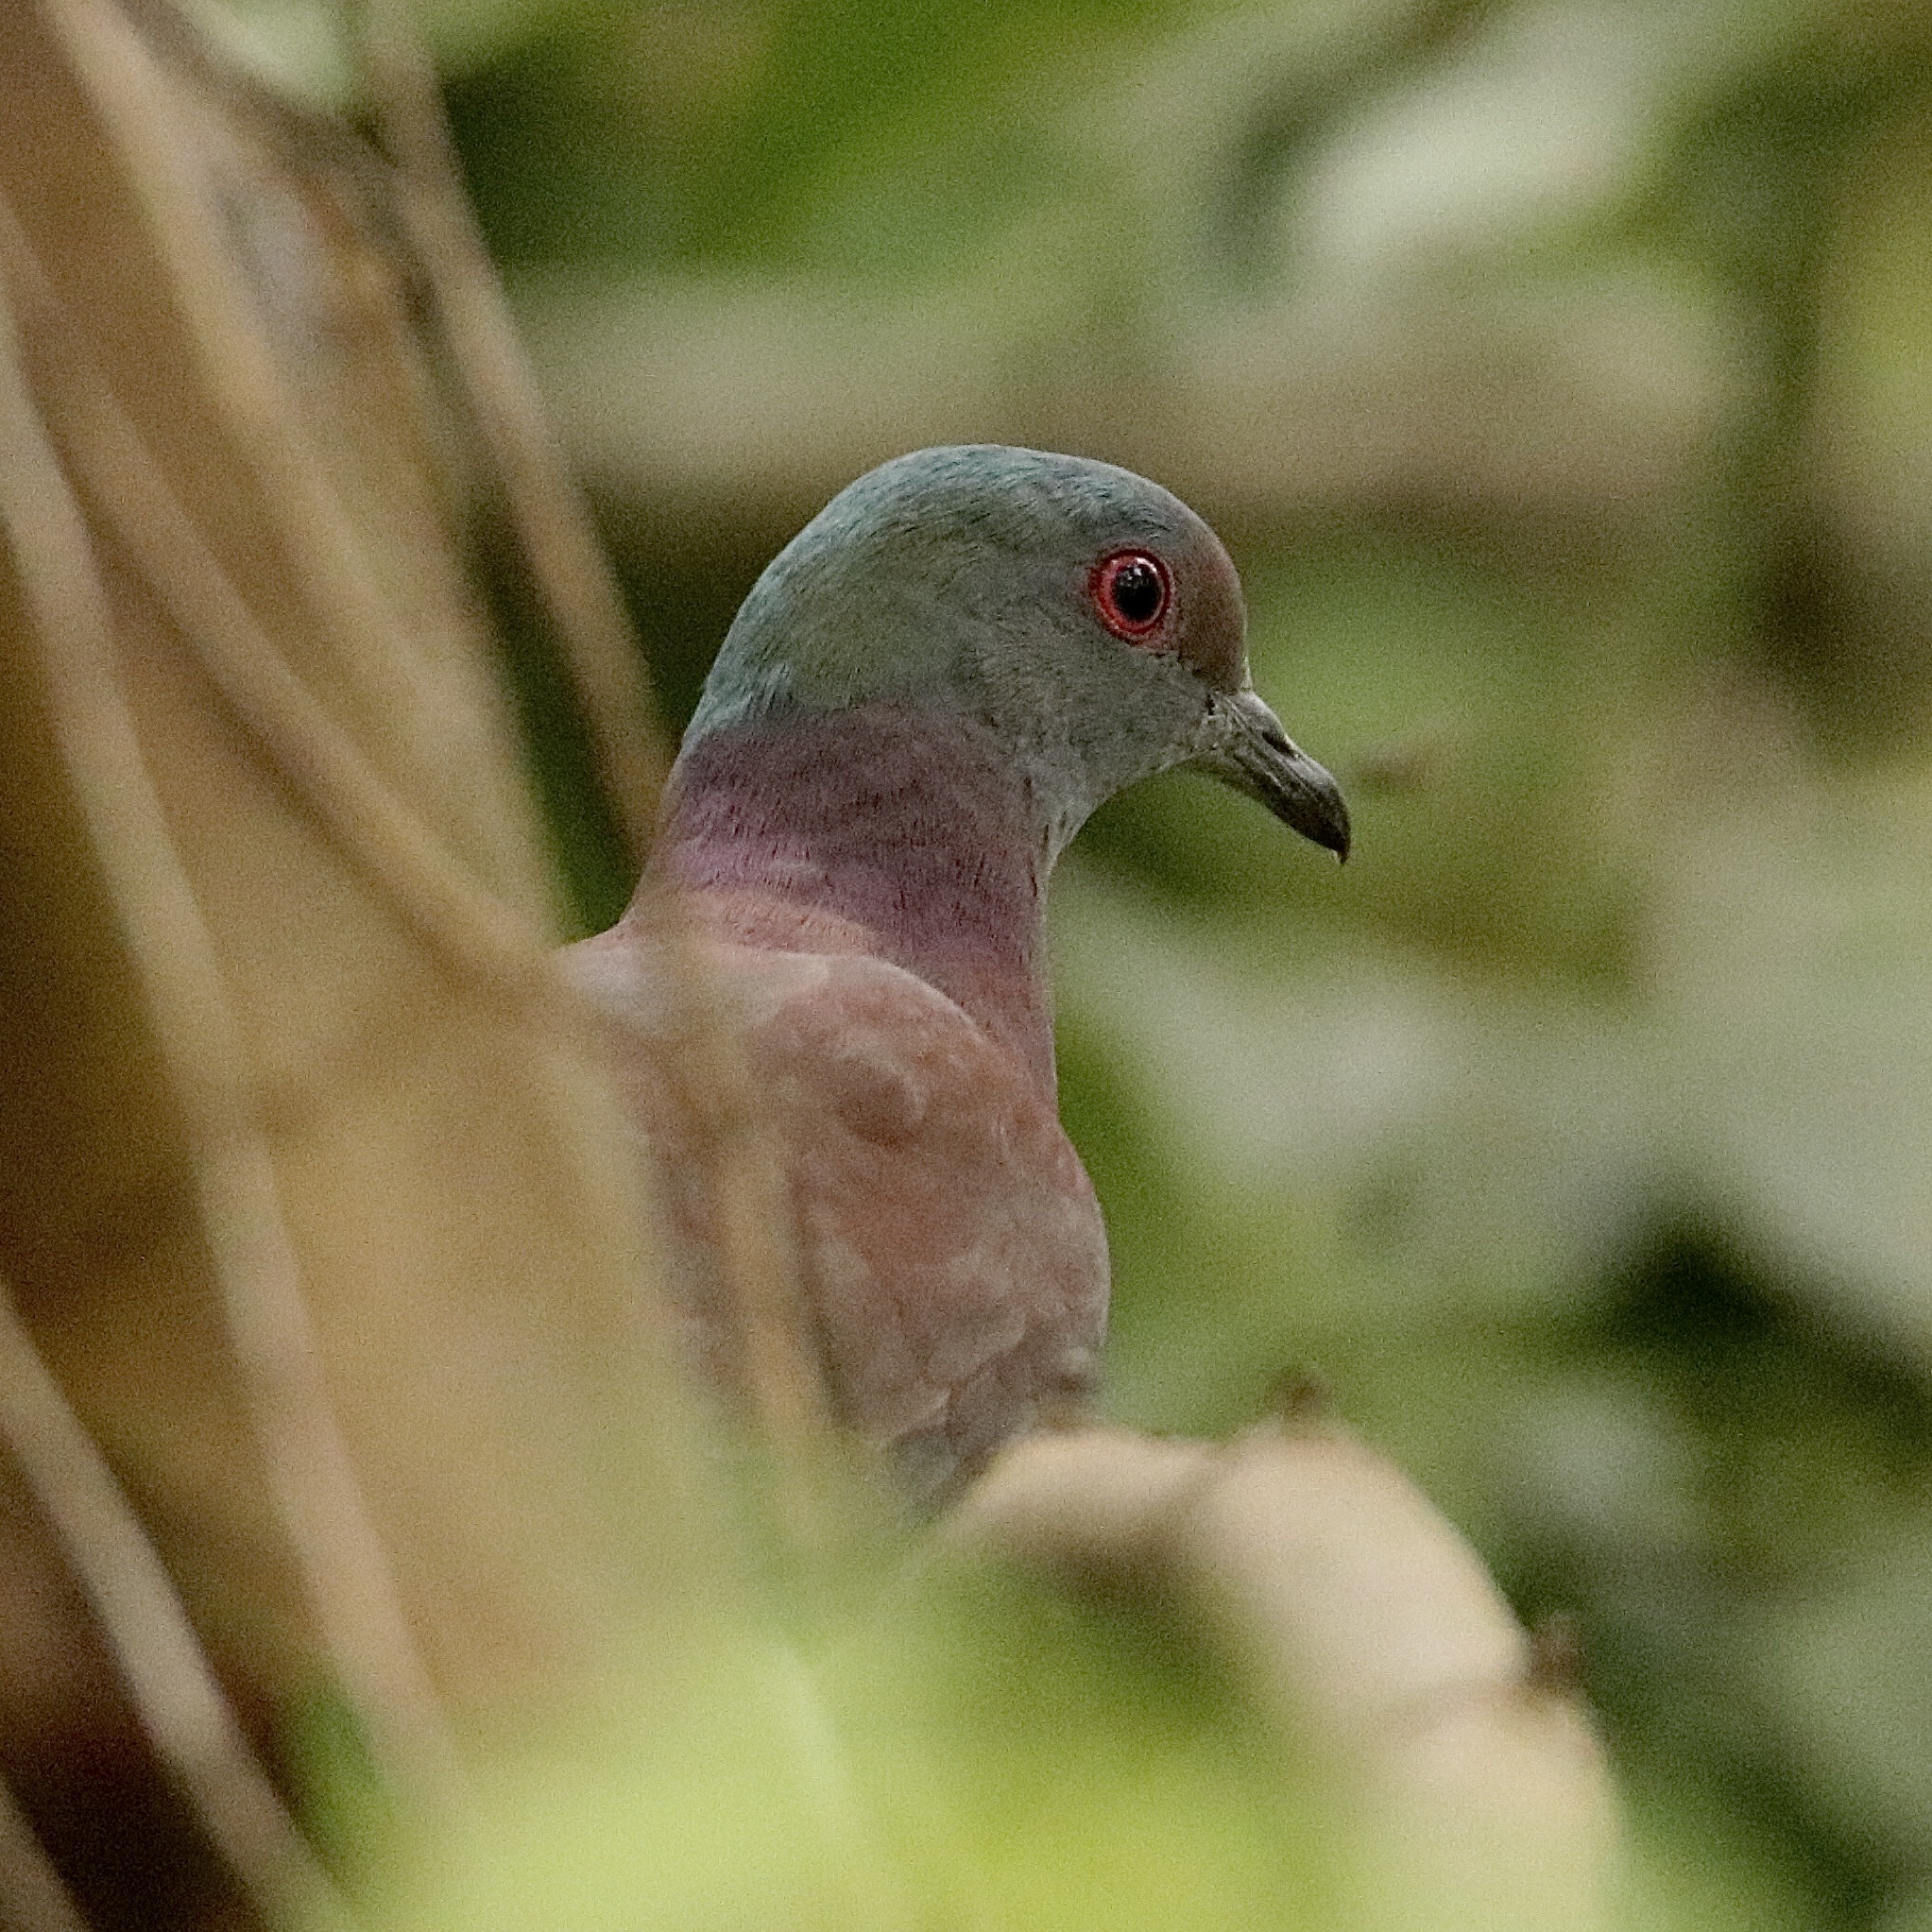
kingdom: Animalia
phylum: Chordata
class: Aves
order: Columbiformes
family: Columbidae
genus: Patagioenas
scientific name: Patagioenas cayennensis
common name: Pale-vented pigeon
